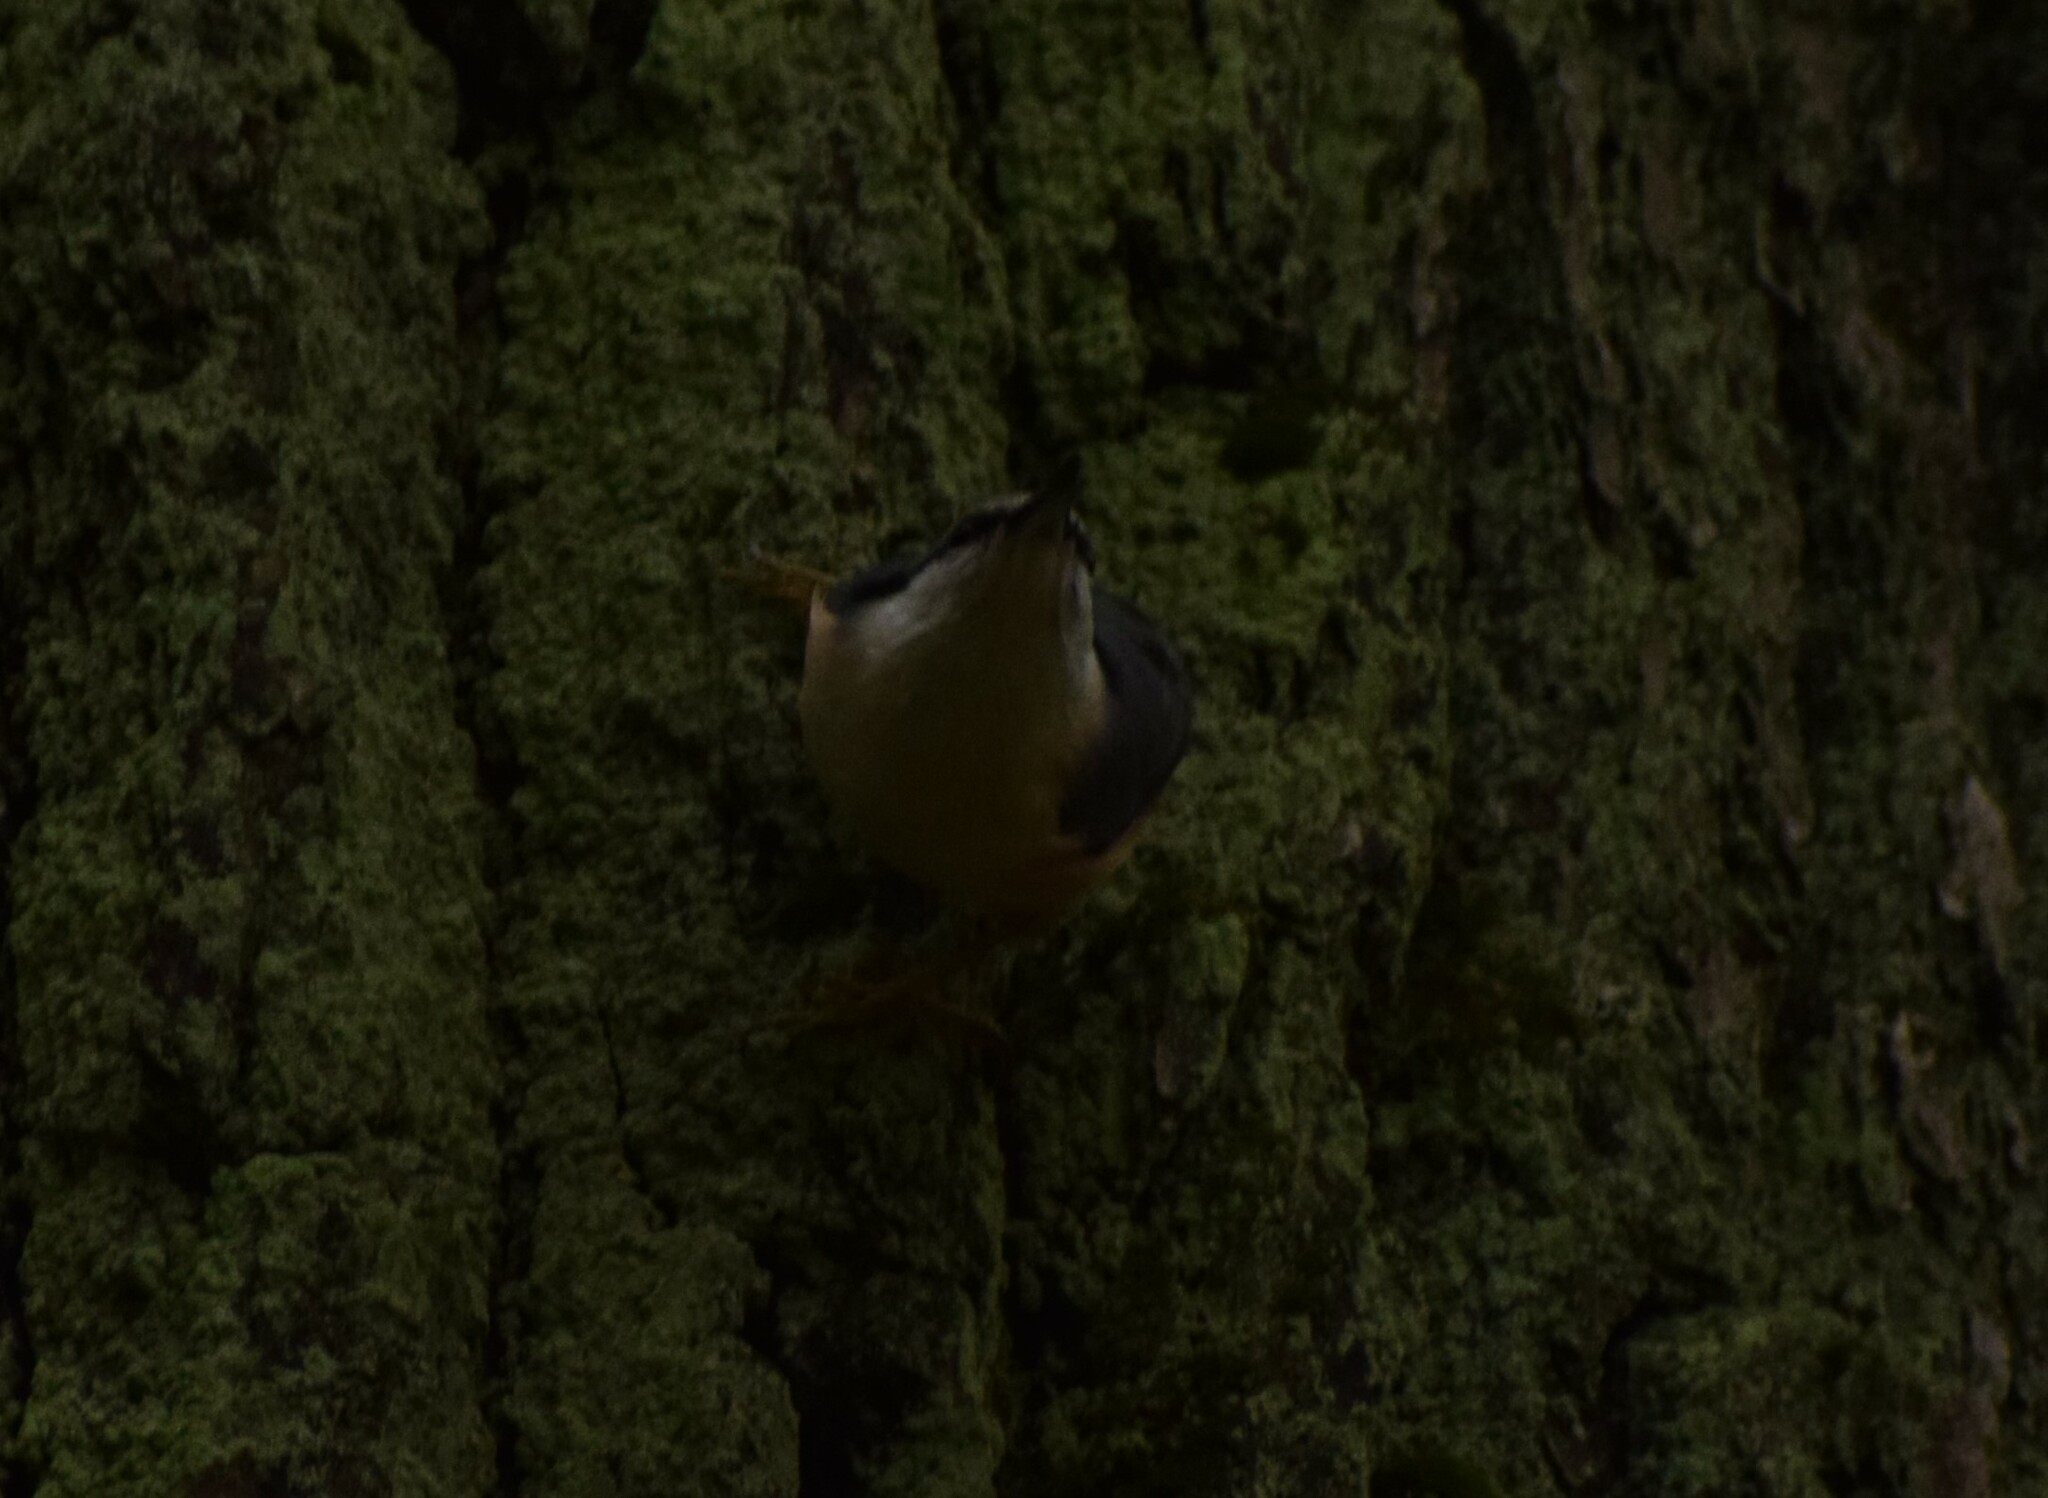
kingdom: Animalia
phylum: Chordata
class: Aves
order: Passeriformes
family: Sittidae
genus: Sitta
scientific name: Sitta europaea
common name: Eurasian nuthatch
